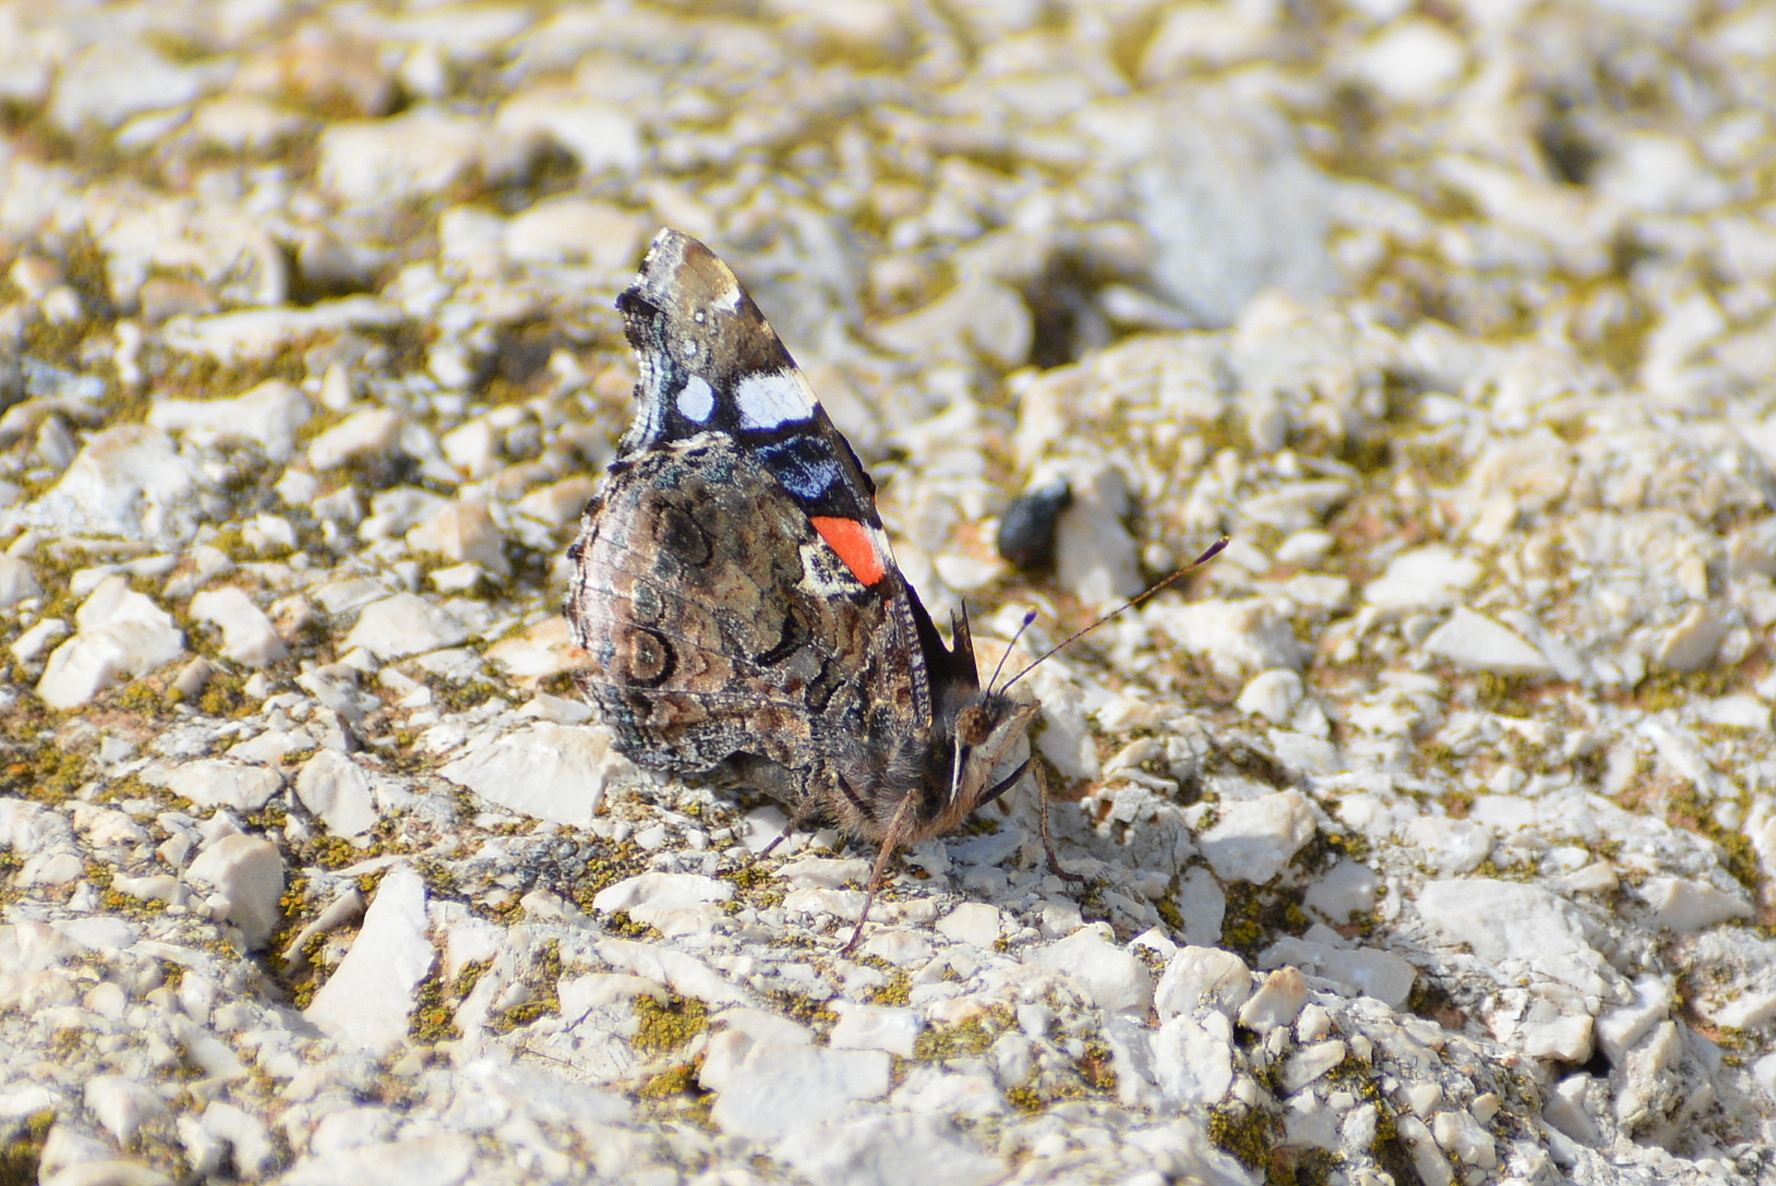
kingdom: Animalia
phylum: Arthropoda
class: Insecta
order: Lepidoptera
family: Nymphalidae
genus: Vanessa
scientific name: Vanessa atalanta
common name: Red admiral
